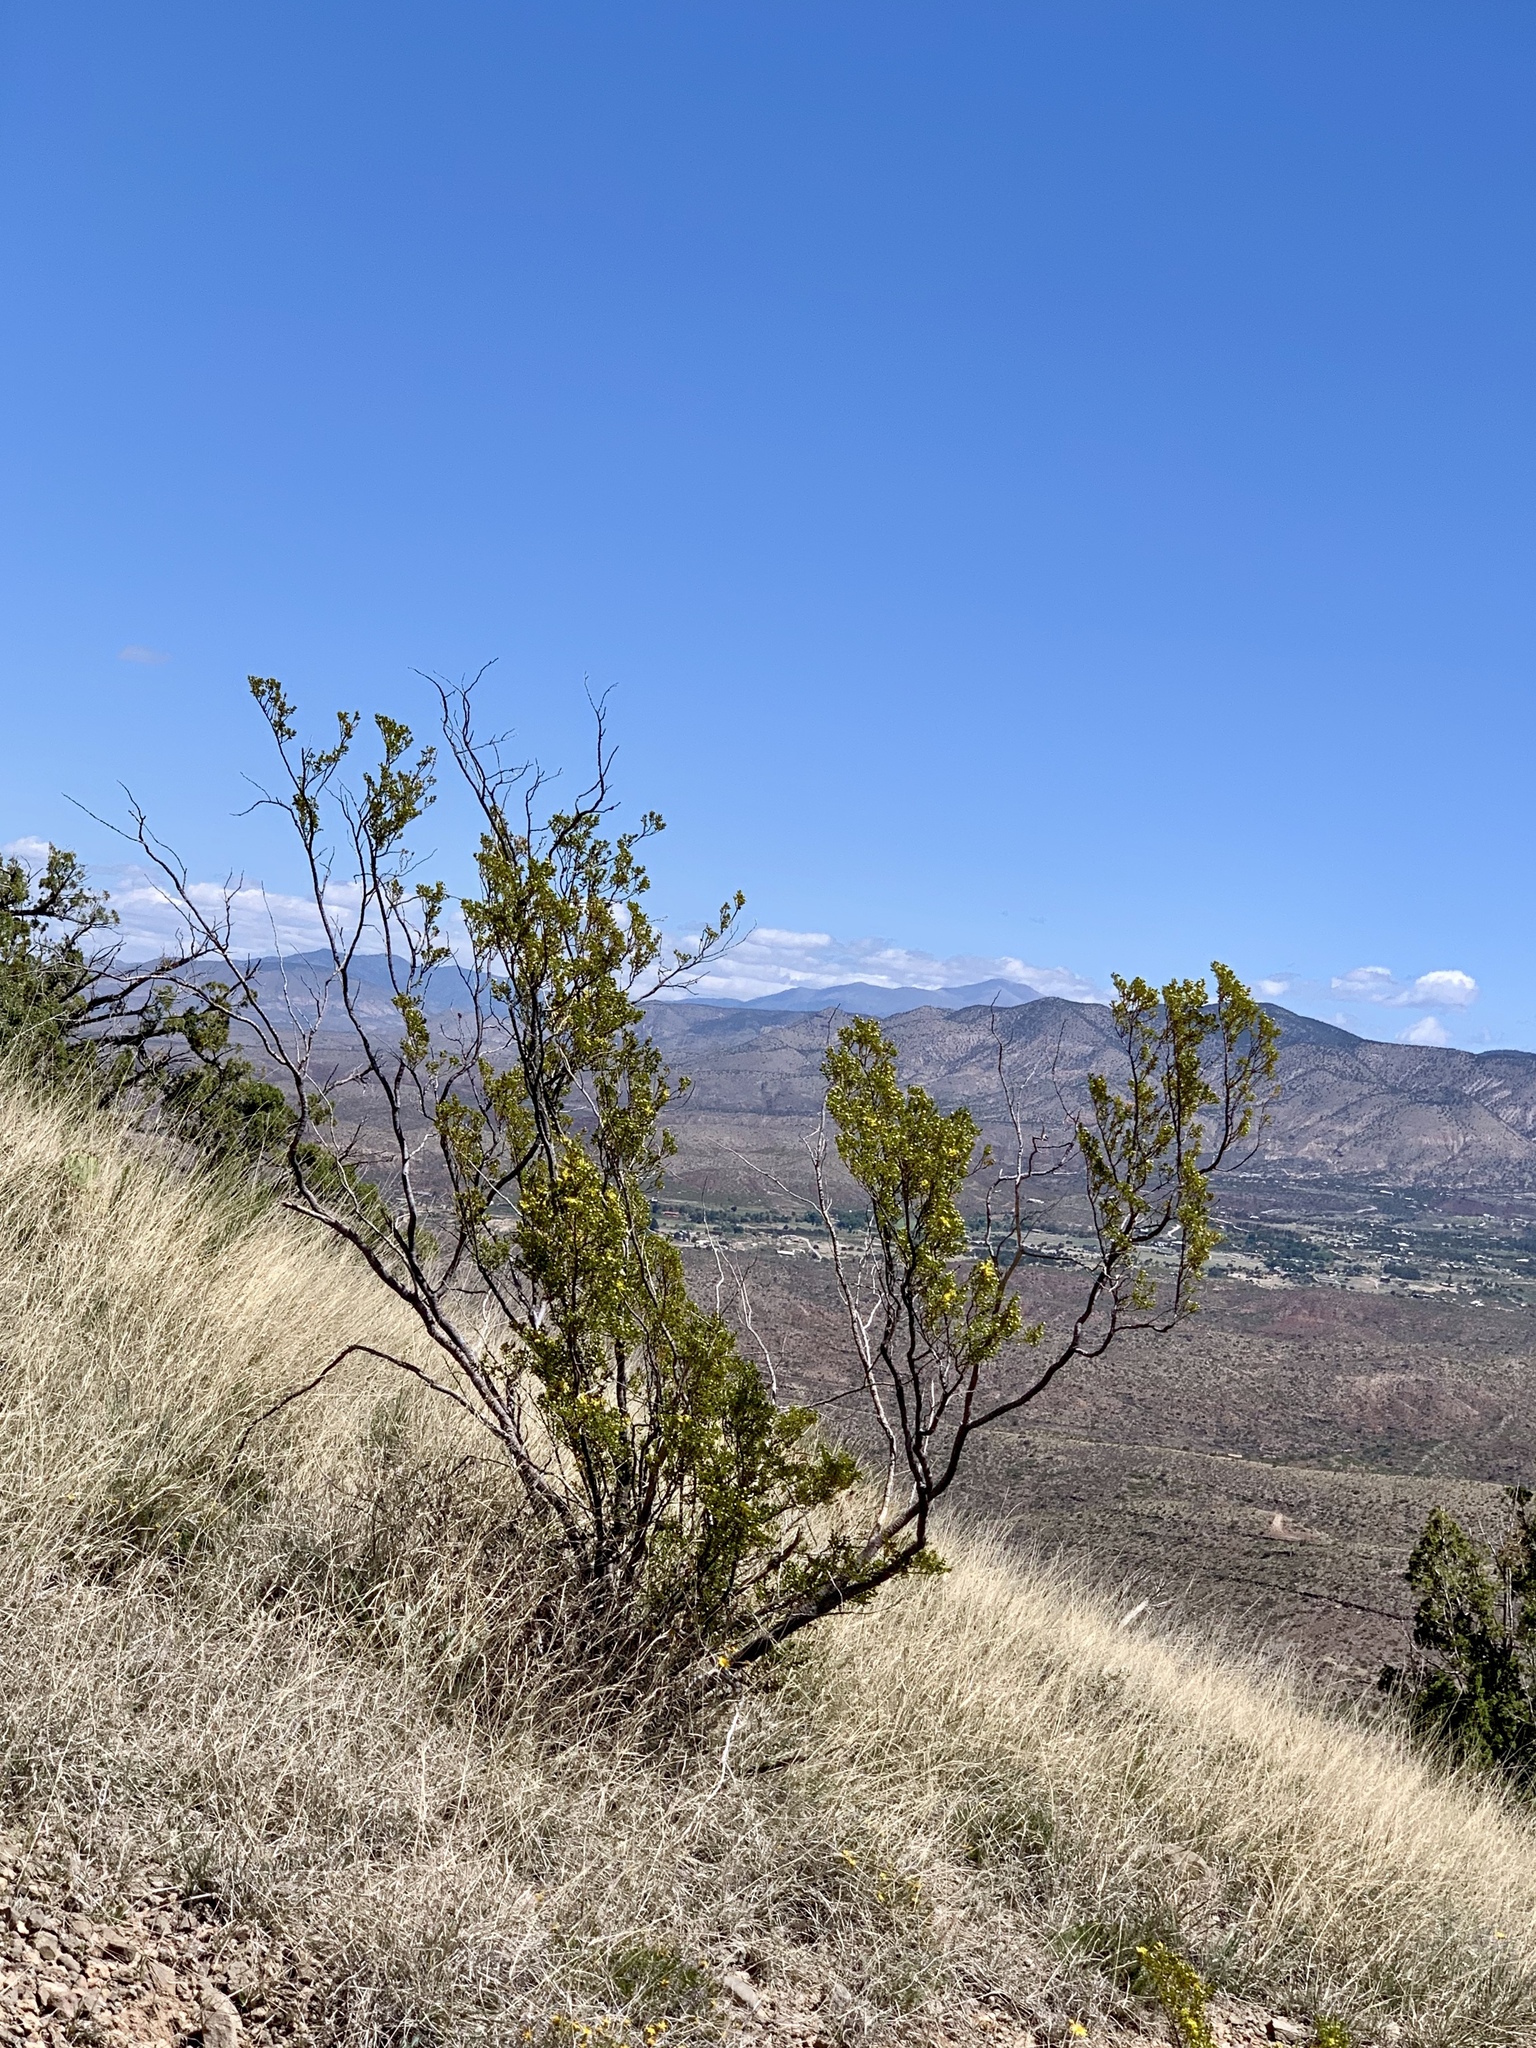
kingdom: Plantae
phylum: Tracheophyta
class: Magnoliopsida
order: Zygophyllales
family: Zygophyllaceae
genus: Larrea
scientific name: Larrea tridentata
